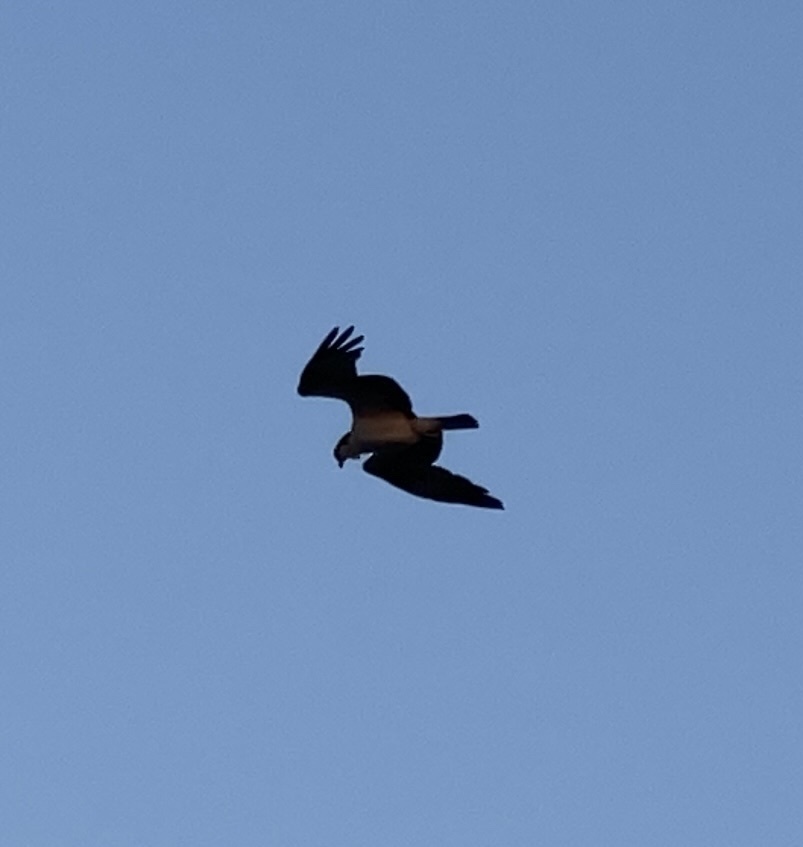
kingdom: Animalia
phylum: Chordata
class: Aves
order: Accipitriformes
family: Pandionidae
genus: Pandion
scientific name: Pandion haliaetus
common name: Osprey
